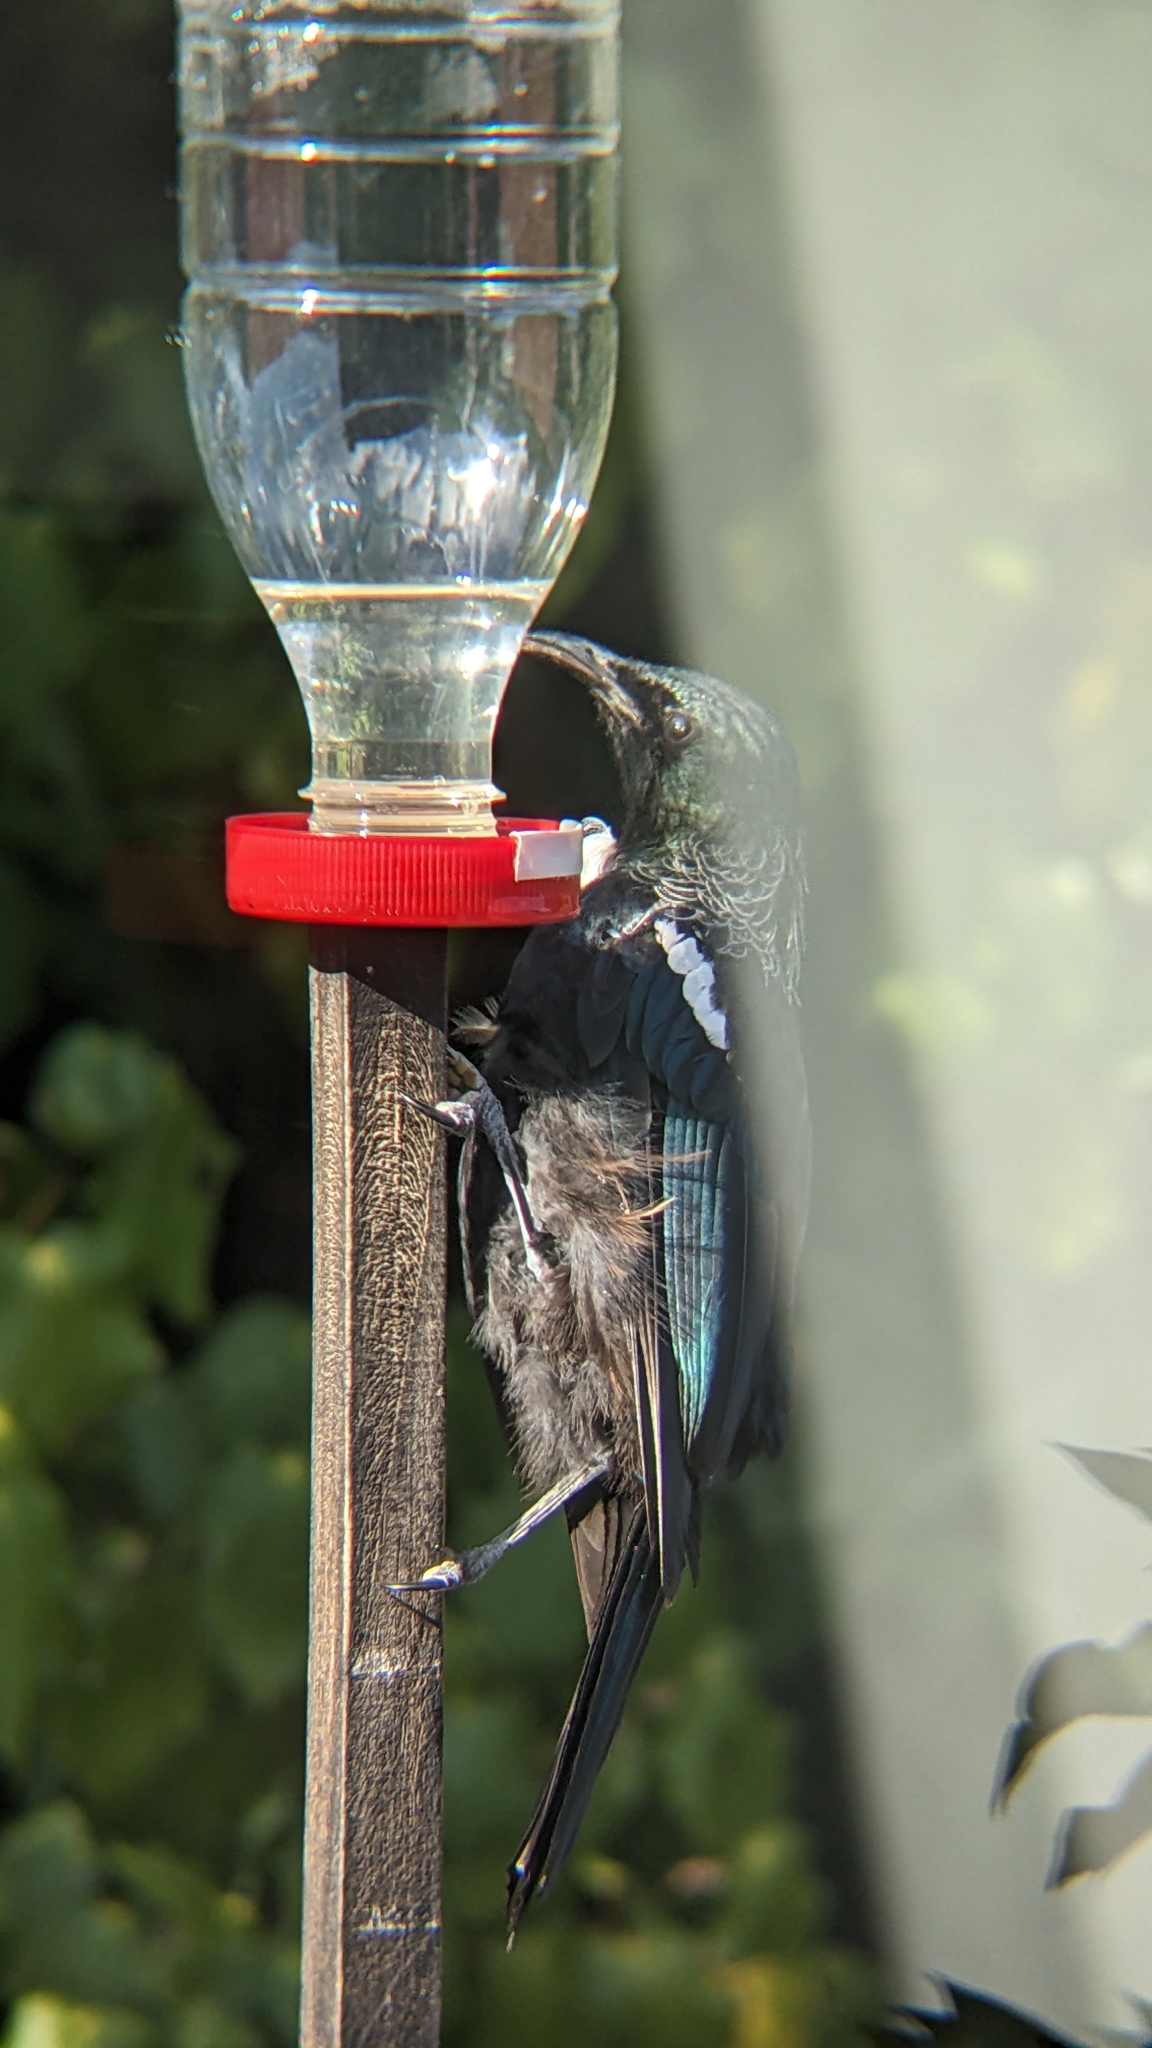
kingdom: Animalia
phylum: Chordata
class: Aves
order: Passeriformes
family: Meliphagidae
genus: Prosthemadera
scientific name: Prosthemadera novaeseelandiae
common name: Tui
